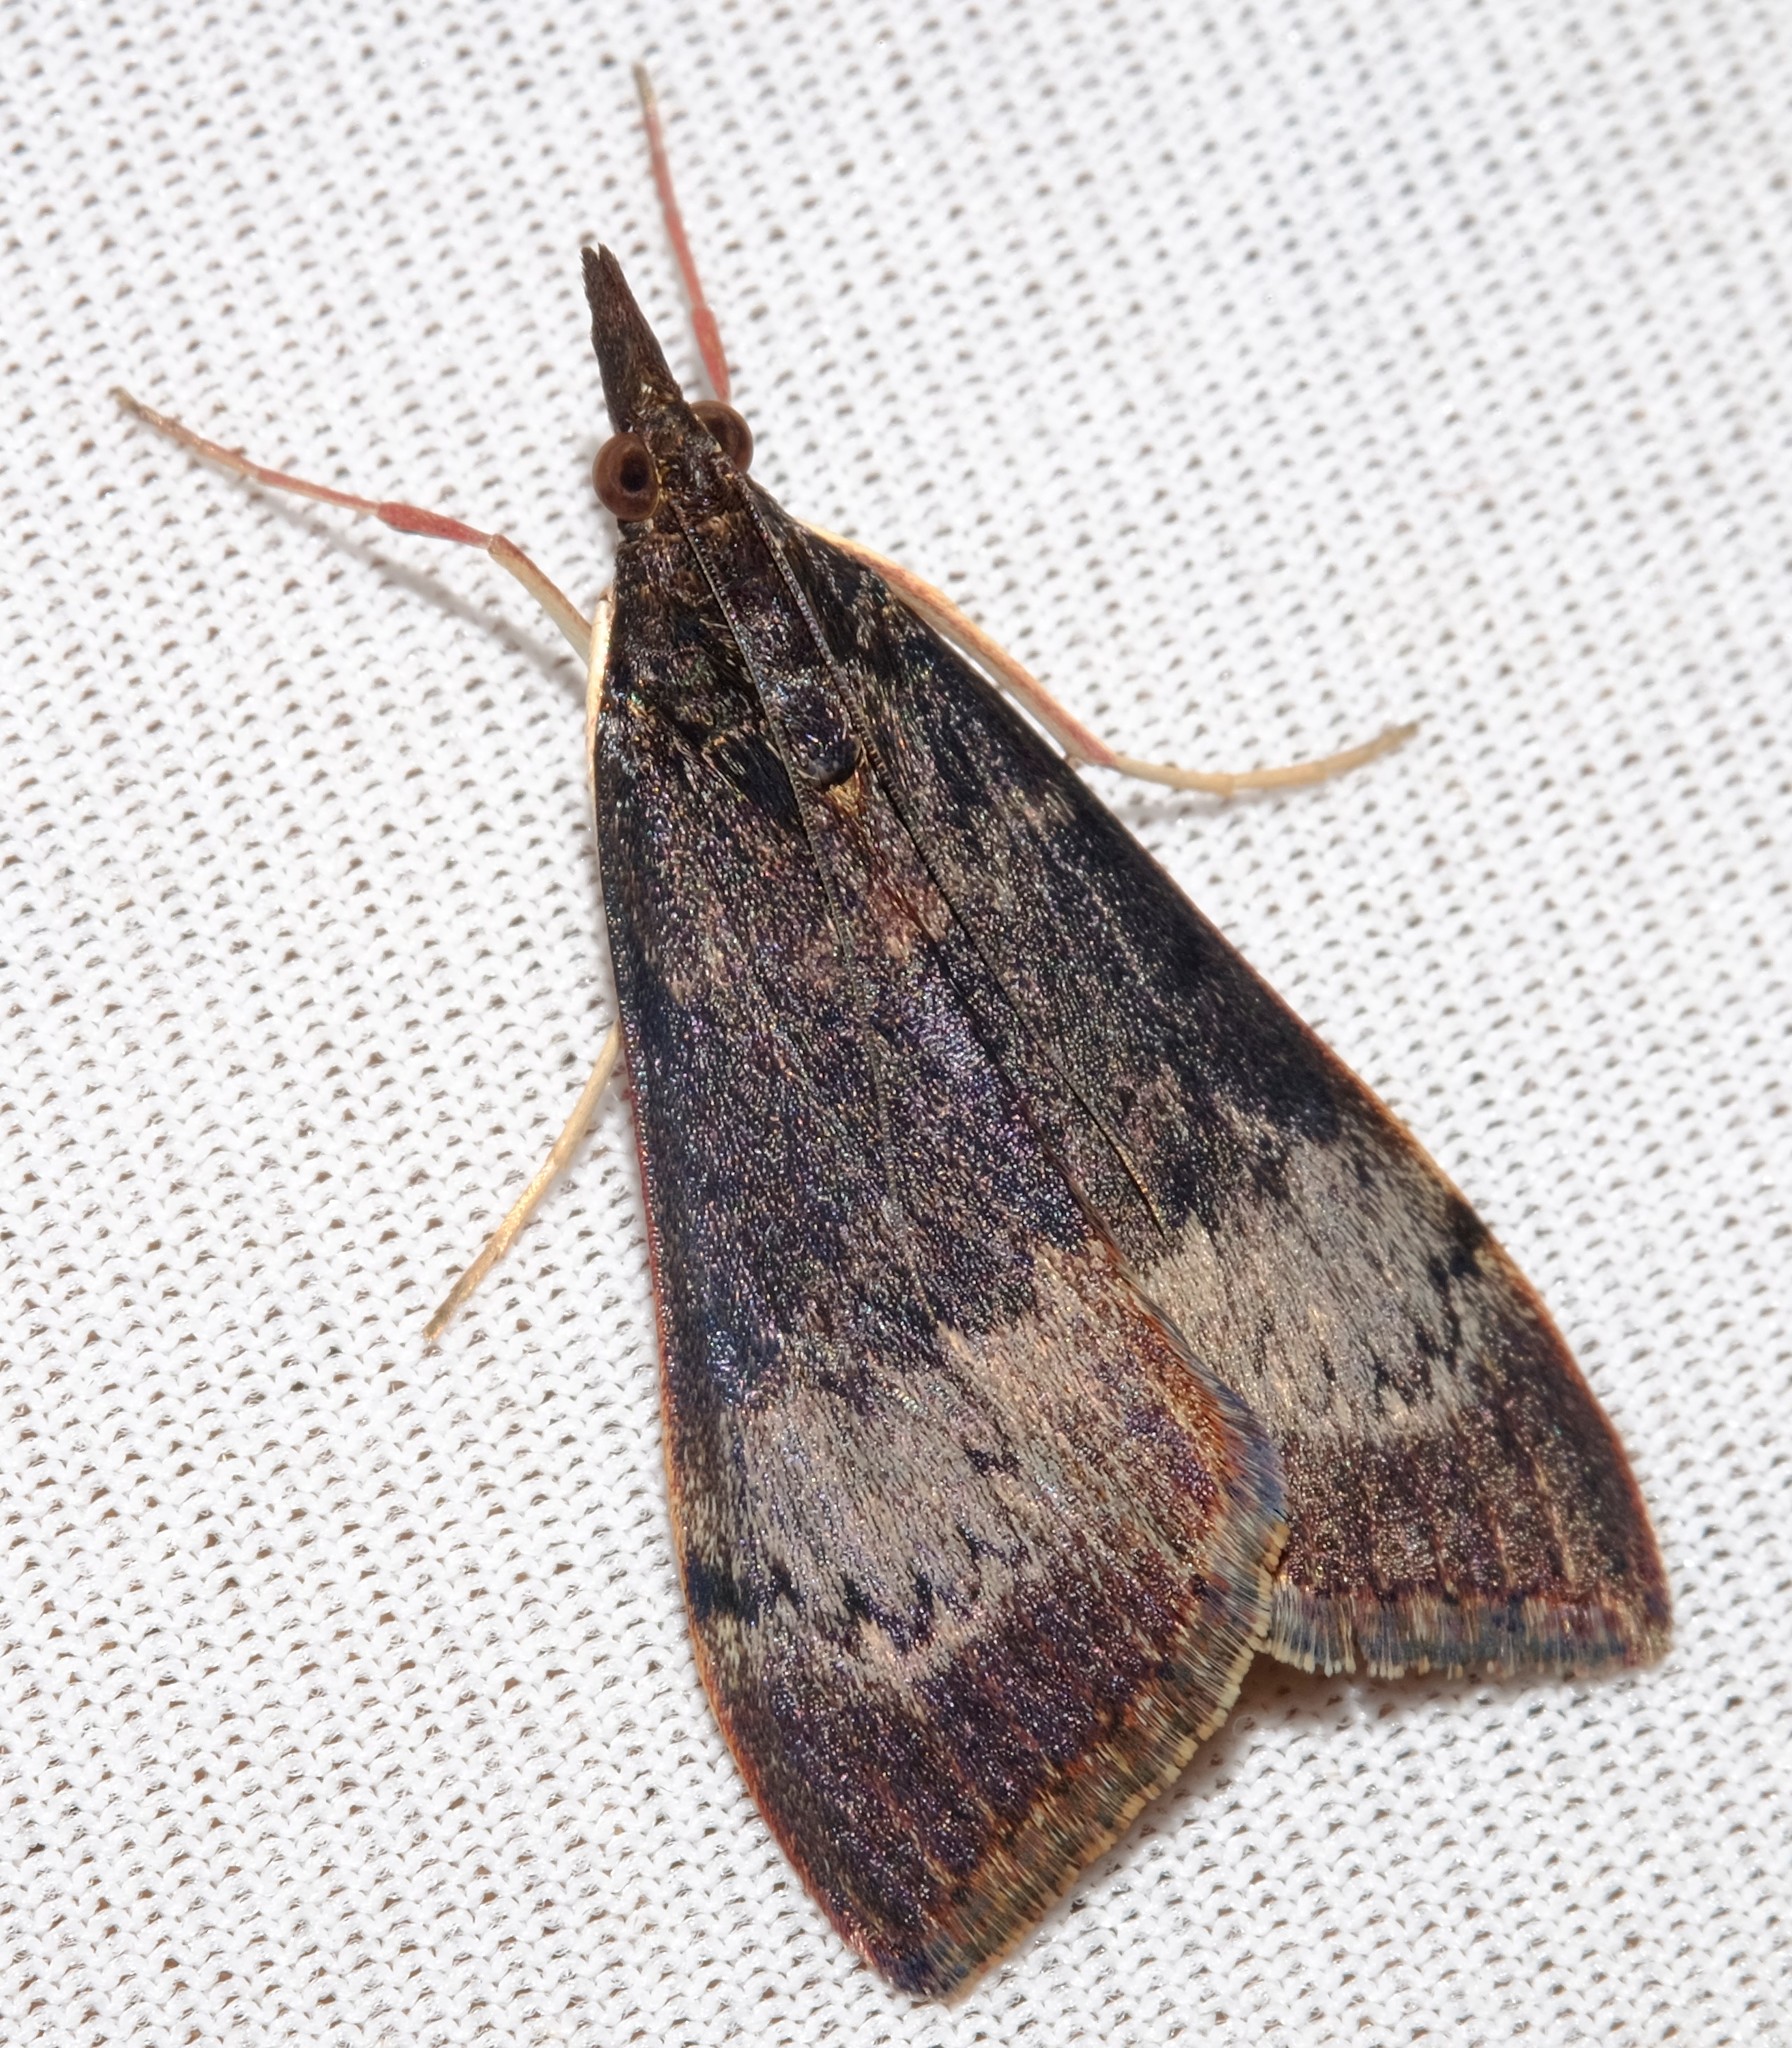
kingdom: Animalia
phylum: Arthropoda
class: Insecta
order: Lepidoptera
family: Crambidae
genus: Uresiphita
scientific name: Uresiphita ornithopteralis
